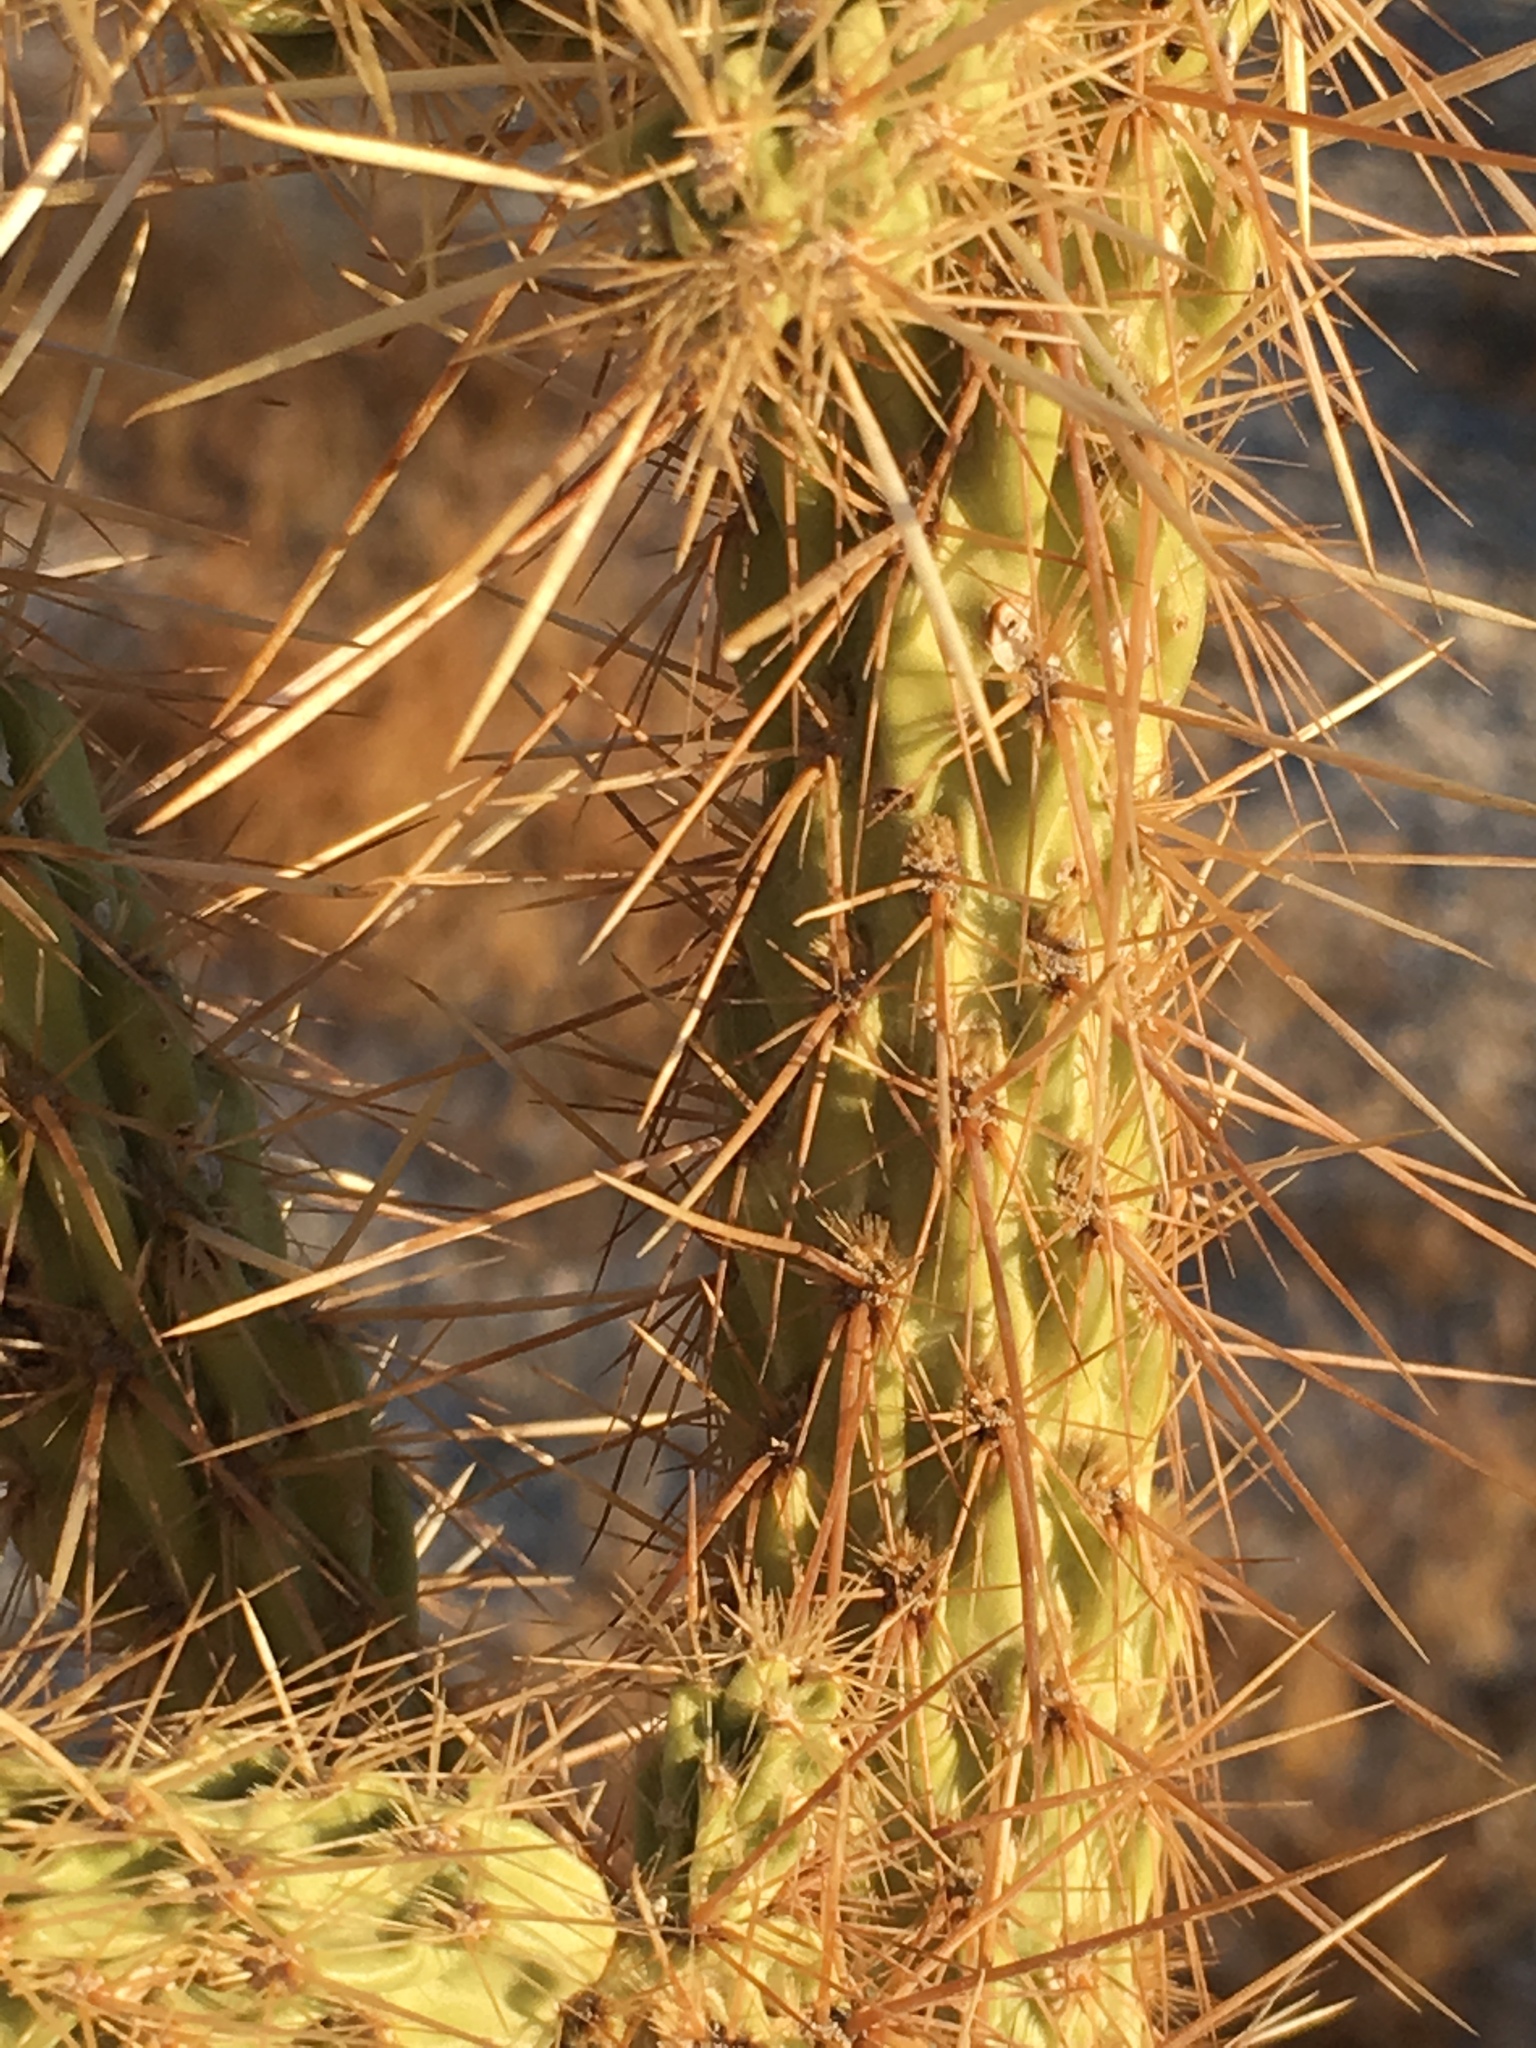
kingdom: Plantae
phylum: Tracheophyta
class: Magnoliopsida
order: Caryophyllales
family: Cactaceae
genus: Cylindropuntia
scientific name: Cylindropuntia ganderi
